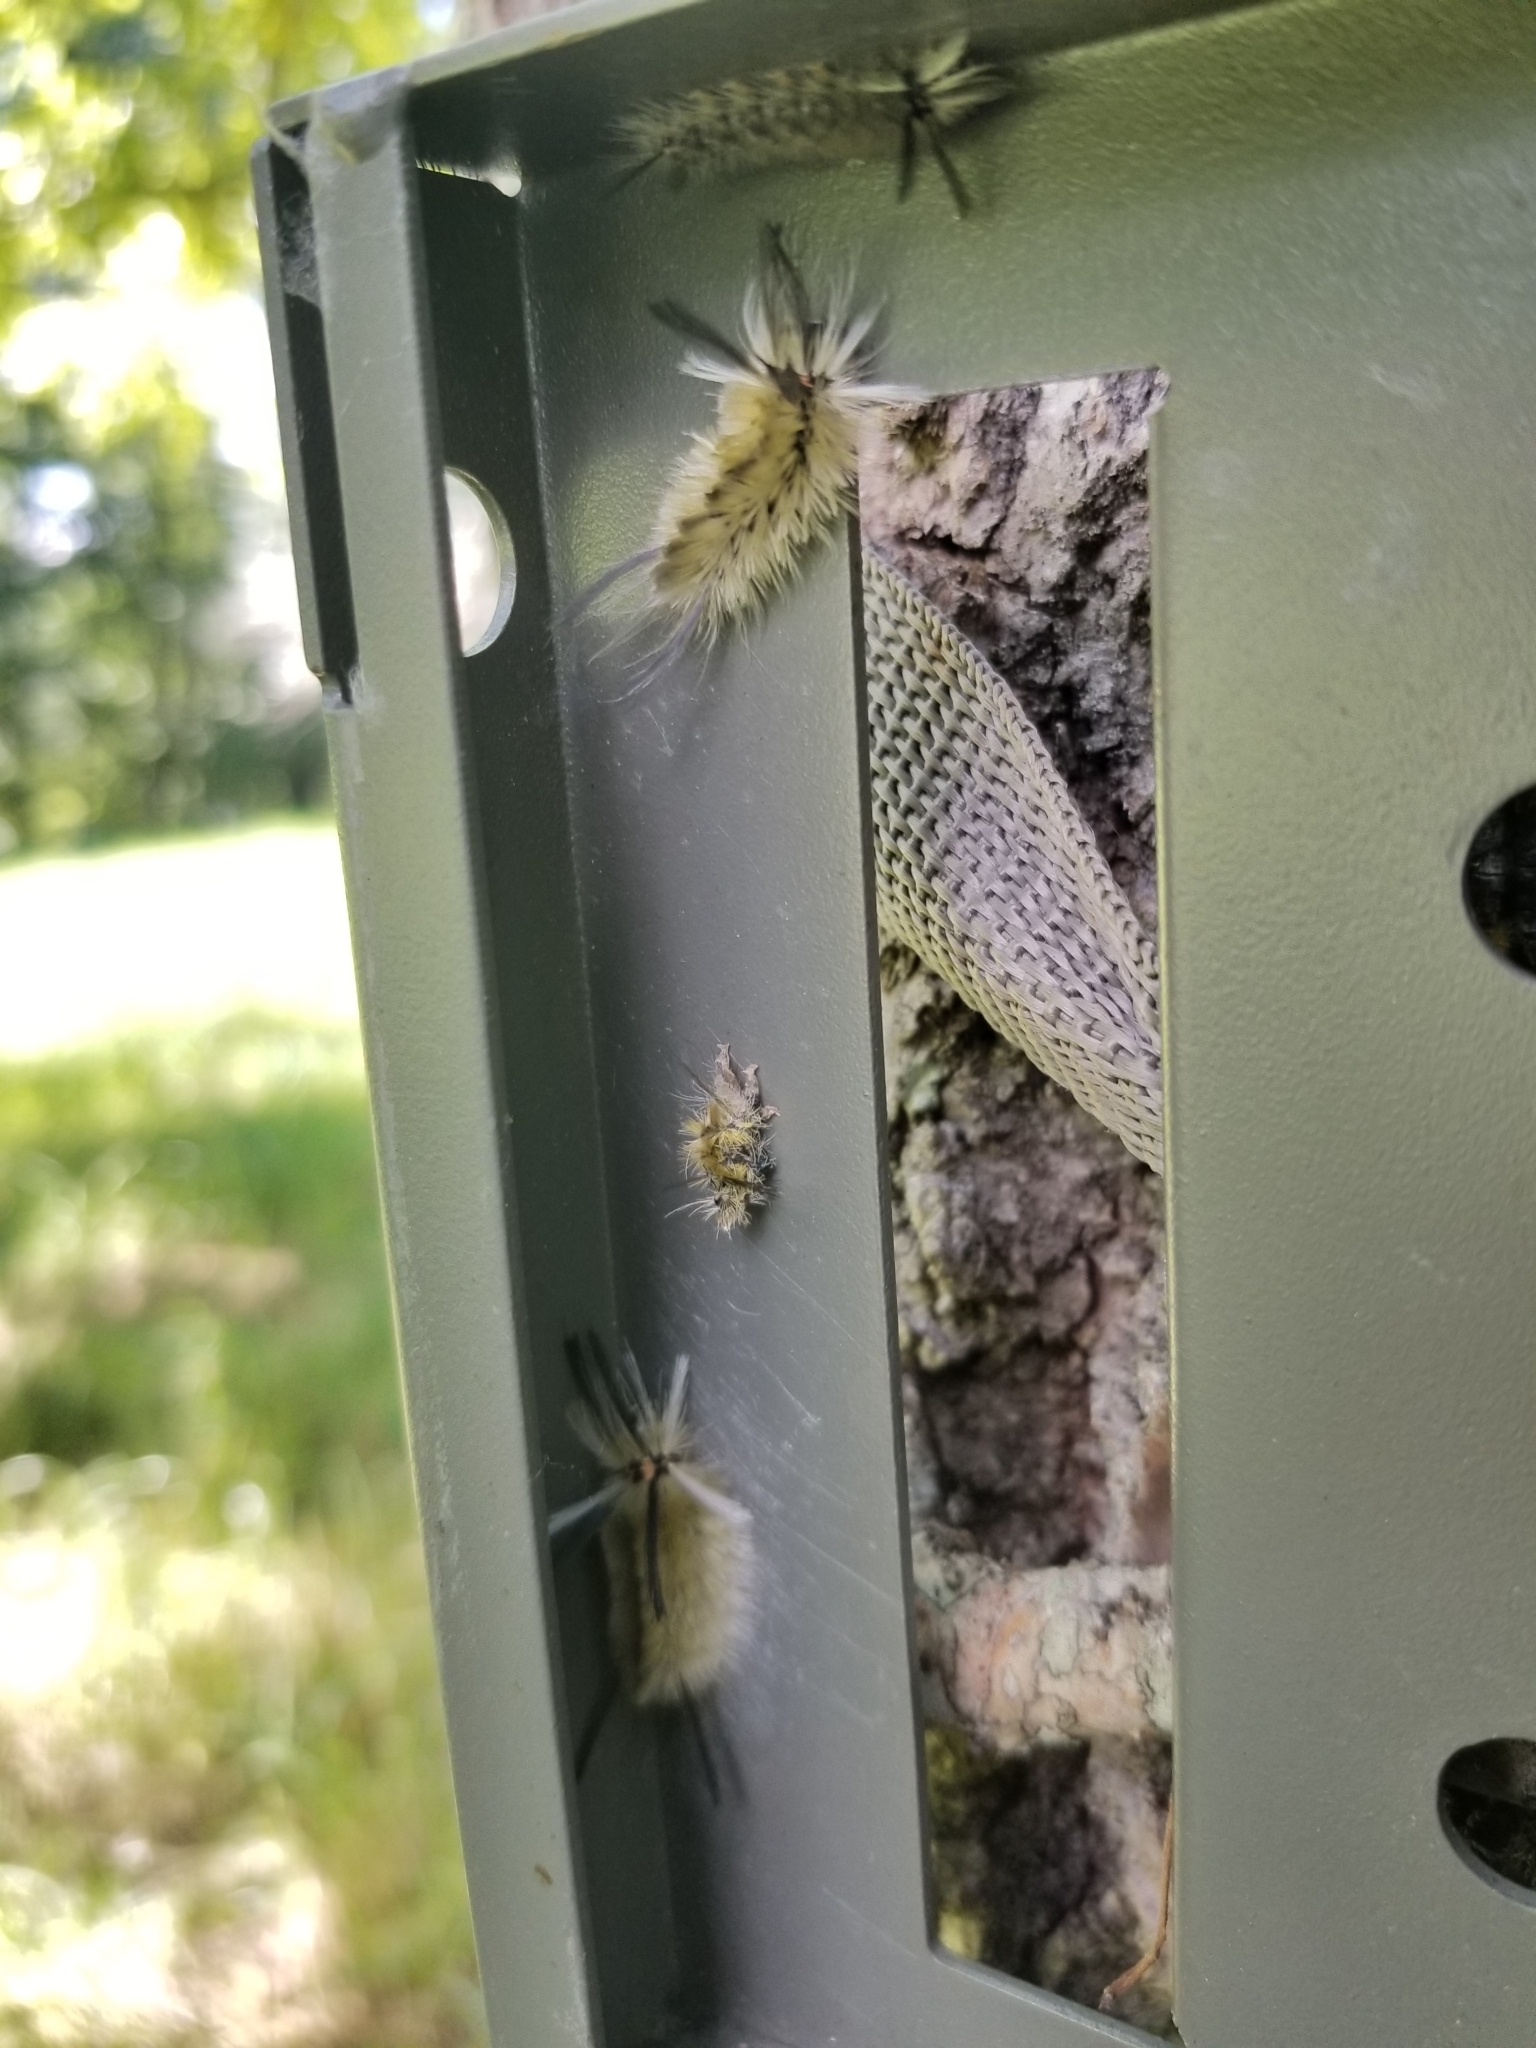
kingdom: Animalia
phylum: Arthropoda
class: Insecta
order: Lepidoptera
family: Erebidae
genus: Halysidota
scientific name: Halysidota tessellaris
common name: Banded tussock moth
